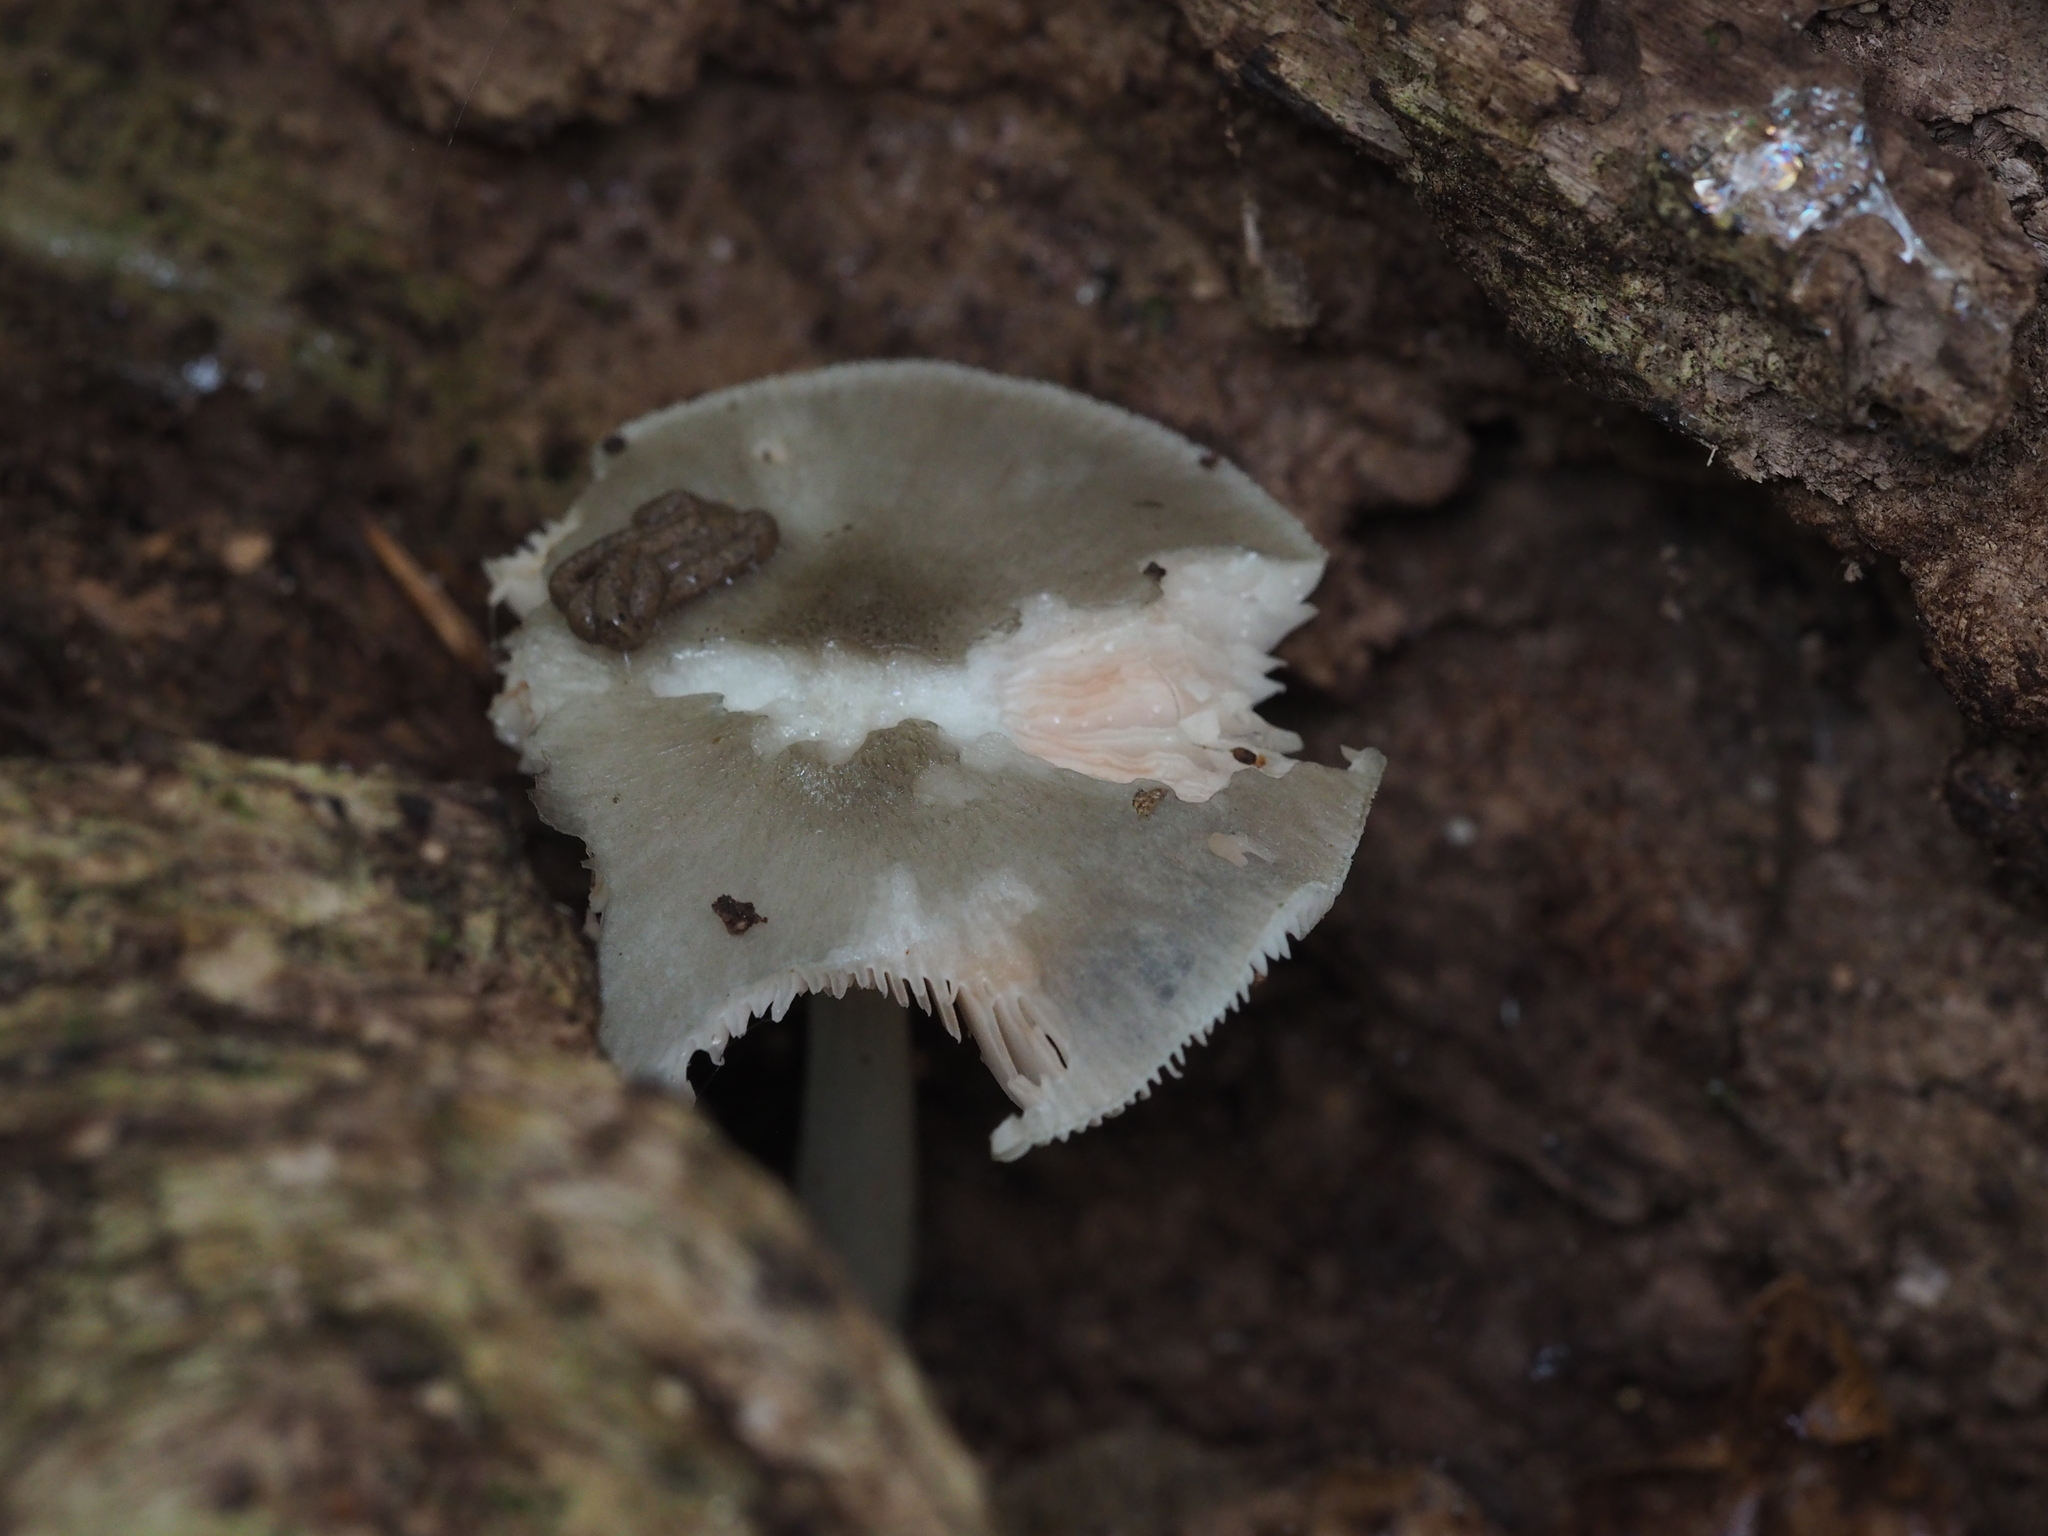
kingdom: Fungi
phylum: Basidiomycota
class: Agaricomycetes
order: Agaricales
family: Pluteaceae
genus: Pluteus
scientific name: Pluteus salicinus
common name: Willow shield
